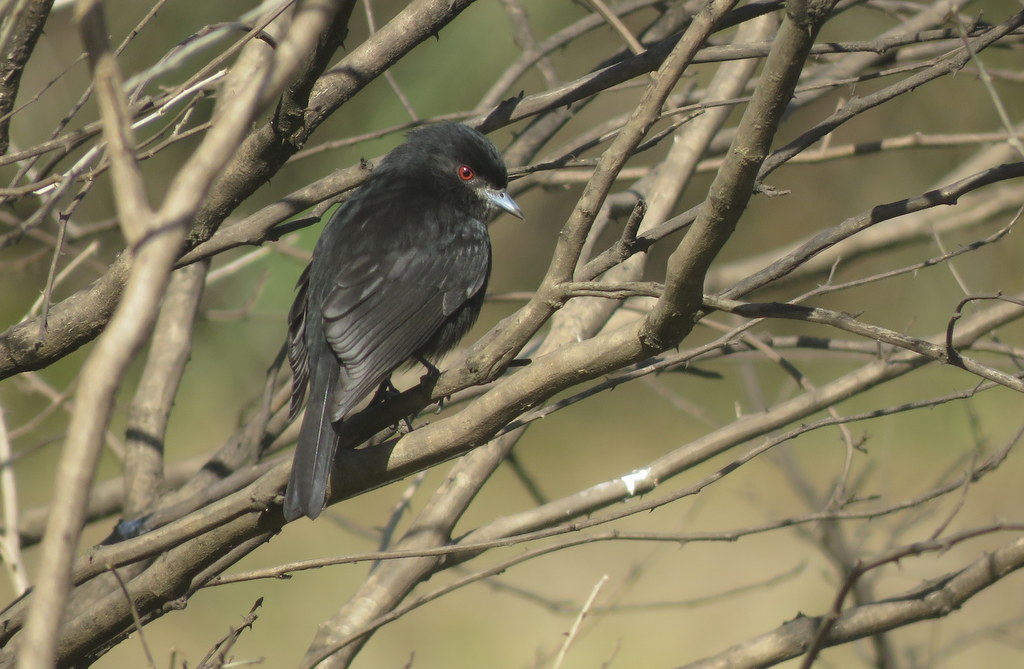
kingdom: Animalia
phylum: Chordata
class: Aves
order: Passeriformes
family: Tyrannidae
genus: Knipolegus
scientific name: Knipolegus cyanirostris
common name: Blue-billed black tyrant
